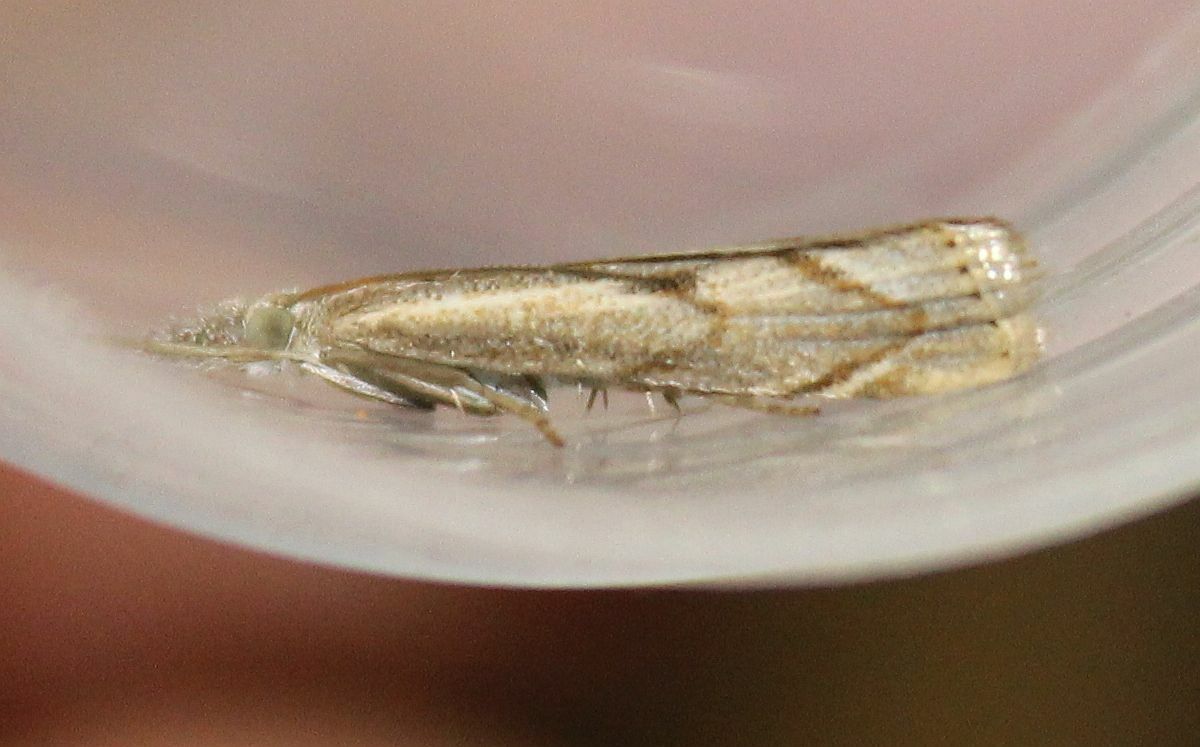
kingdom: Animalia
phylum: Arthropoda
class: Insecta
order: Lepidoptera
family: Crambidae
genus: Agriphila
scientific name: Agriphila geniculea
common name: Elbow-stripe grass-veneer
